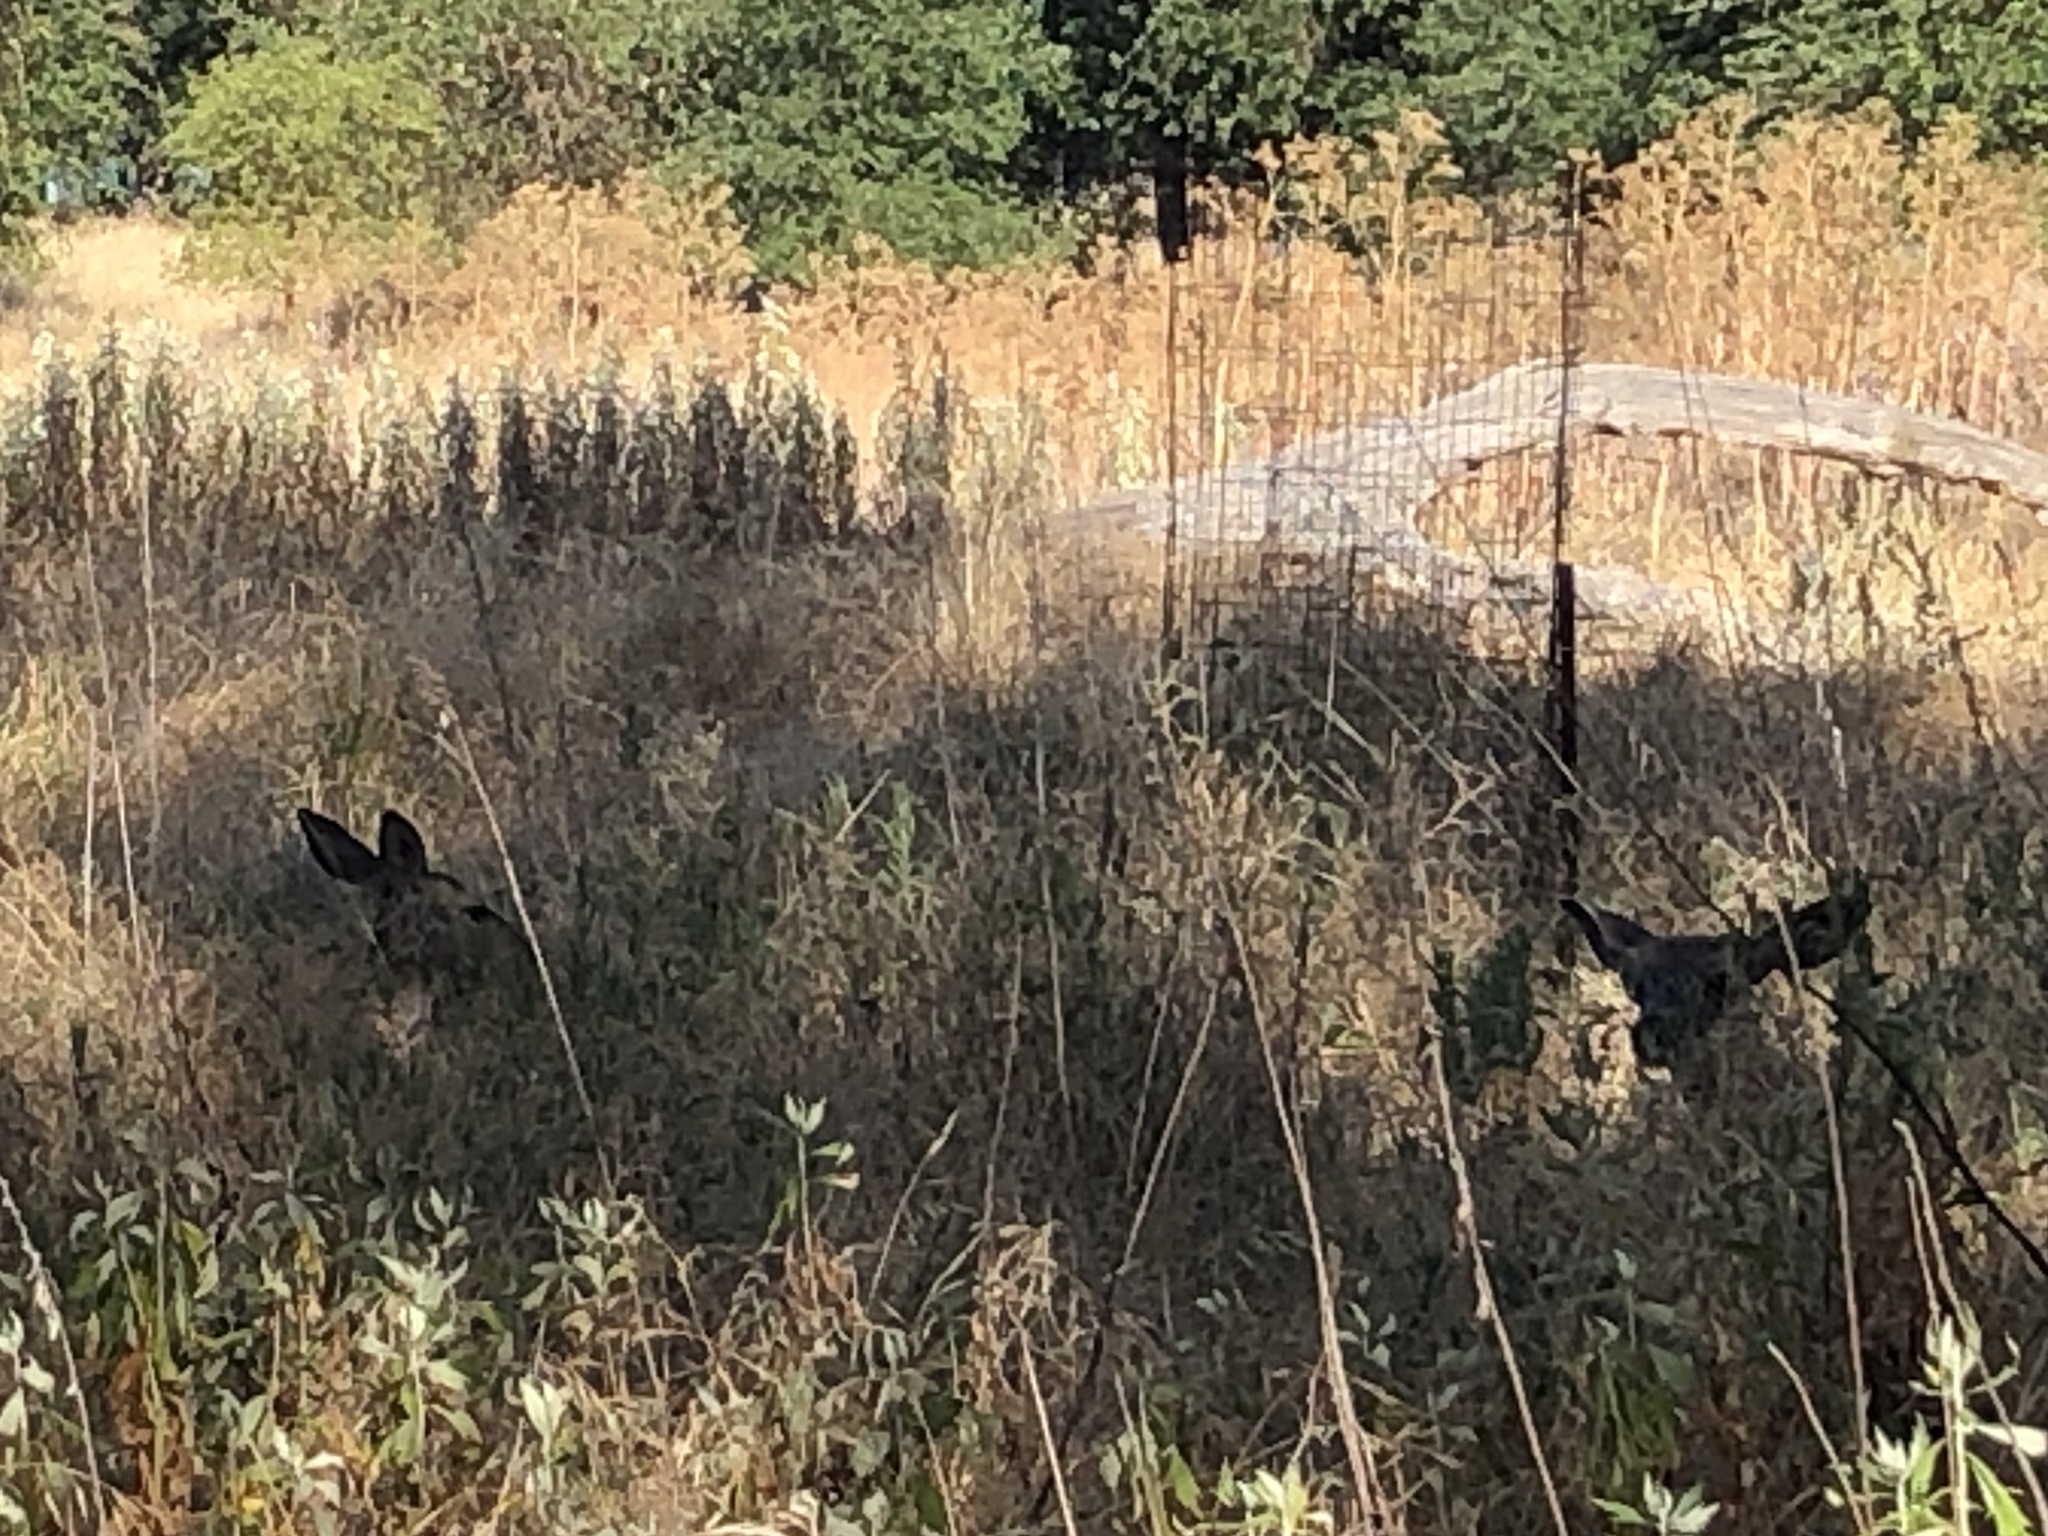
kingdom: Animalia
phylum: Chordata
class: Mammalia
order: Artiodactyla
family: Cervidae
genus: Odocoileus
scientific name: Odocoileus hemionus
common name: Mule deer
